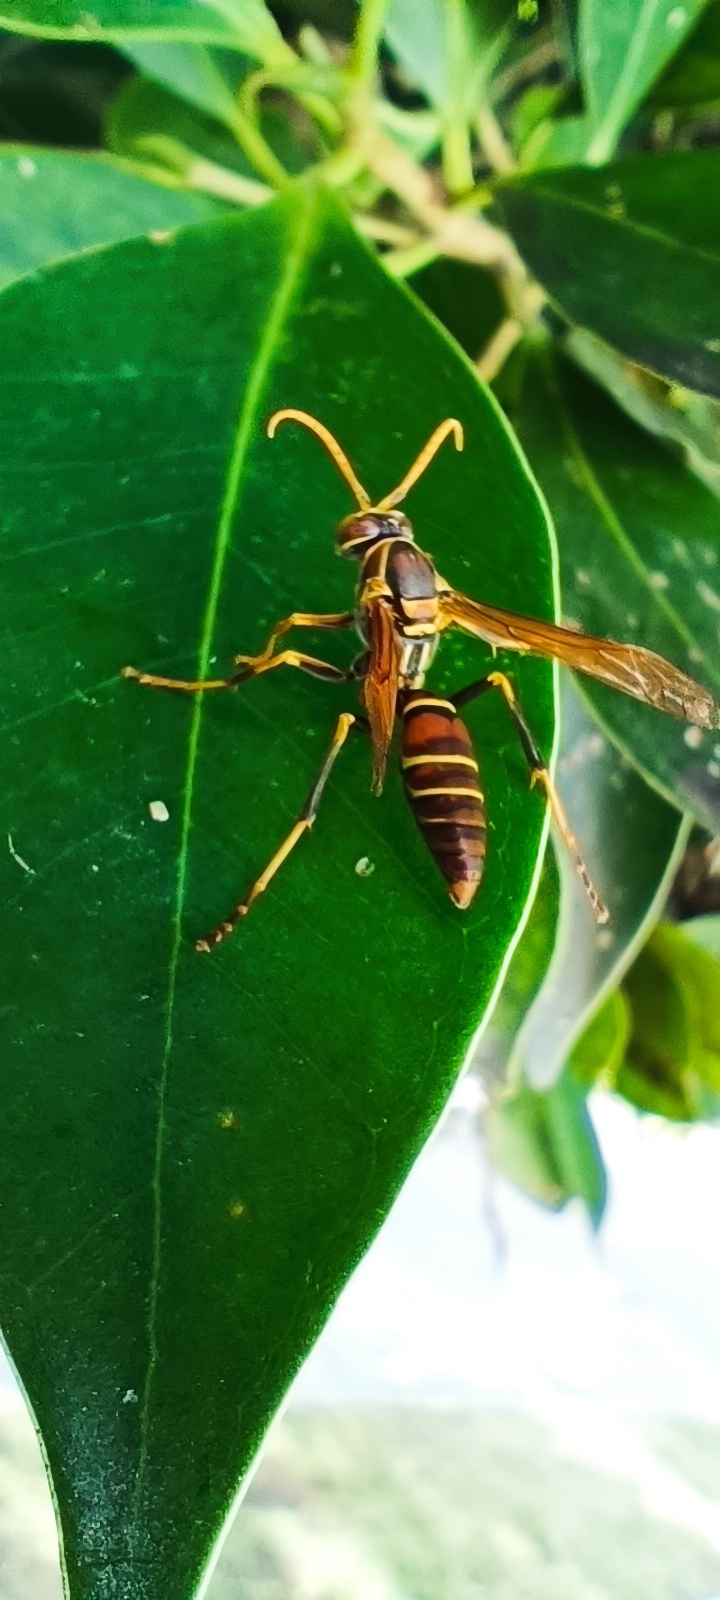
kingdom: Animalia
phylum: Arthropoda
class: Insecta
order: Hymenoptera
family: Eumenidae
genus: Polistes
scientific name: Polistes instabilis
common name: Unstable paper wasp
